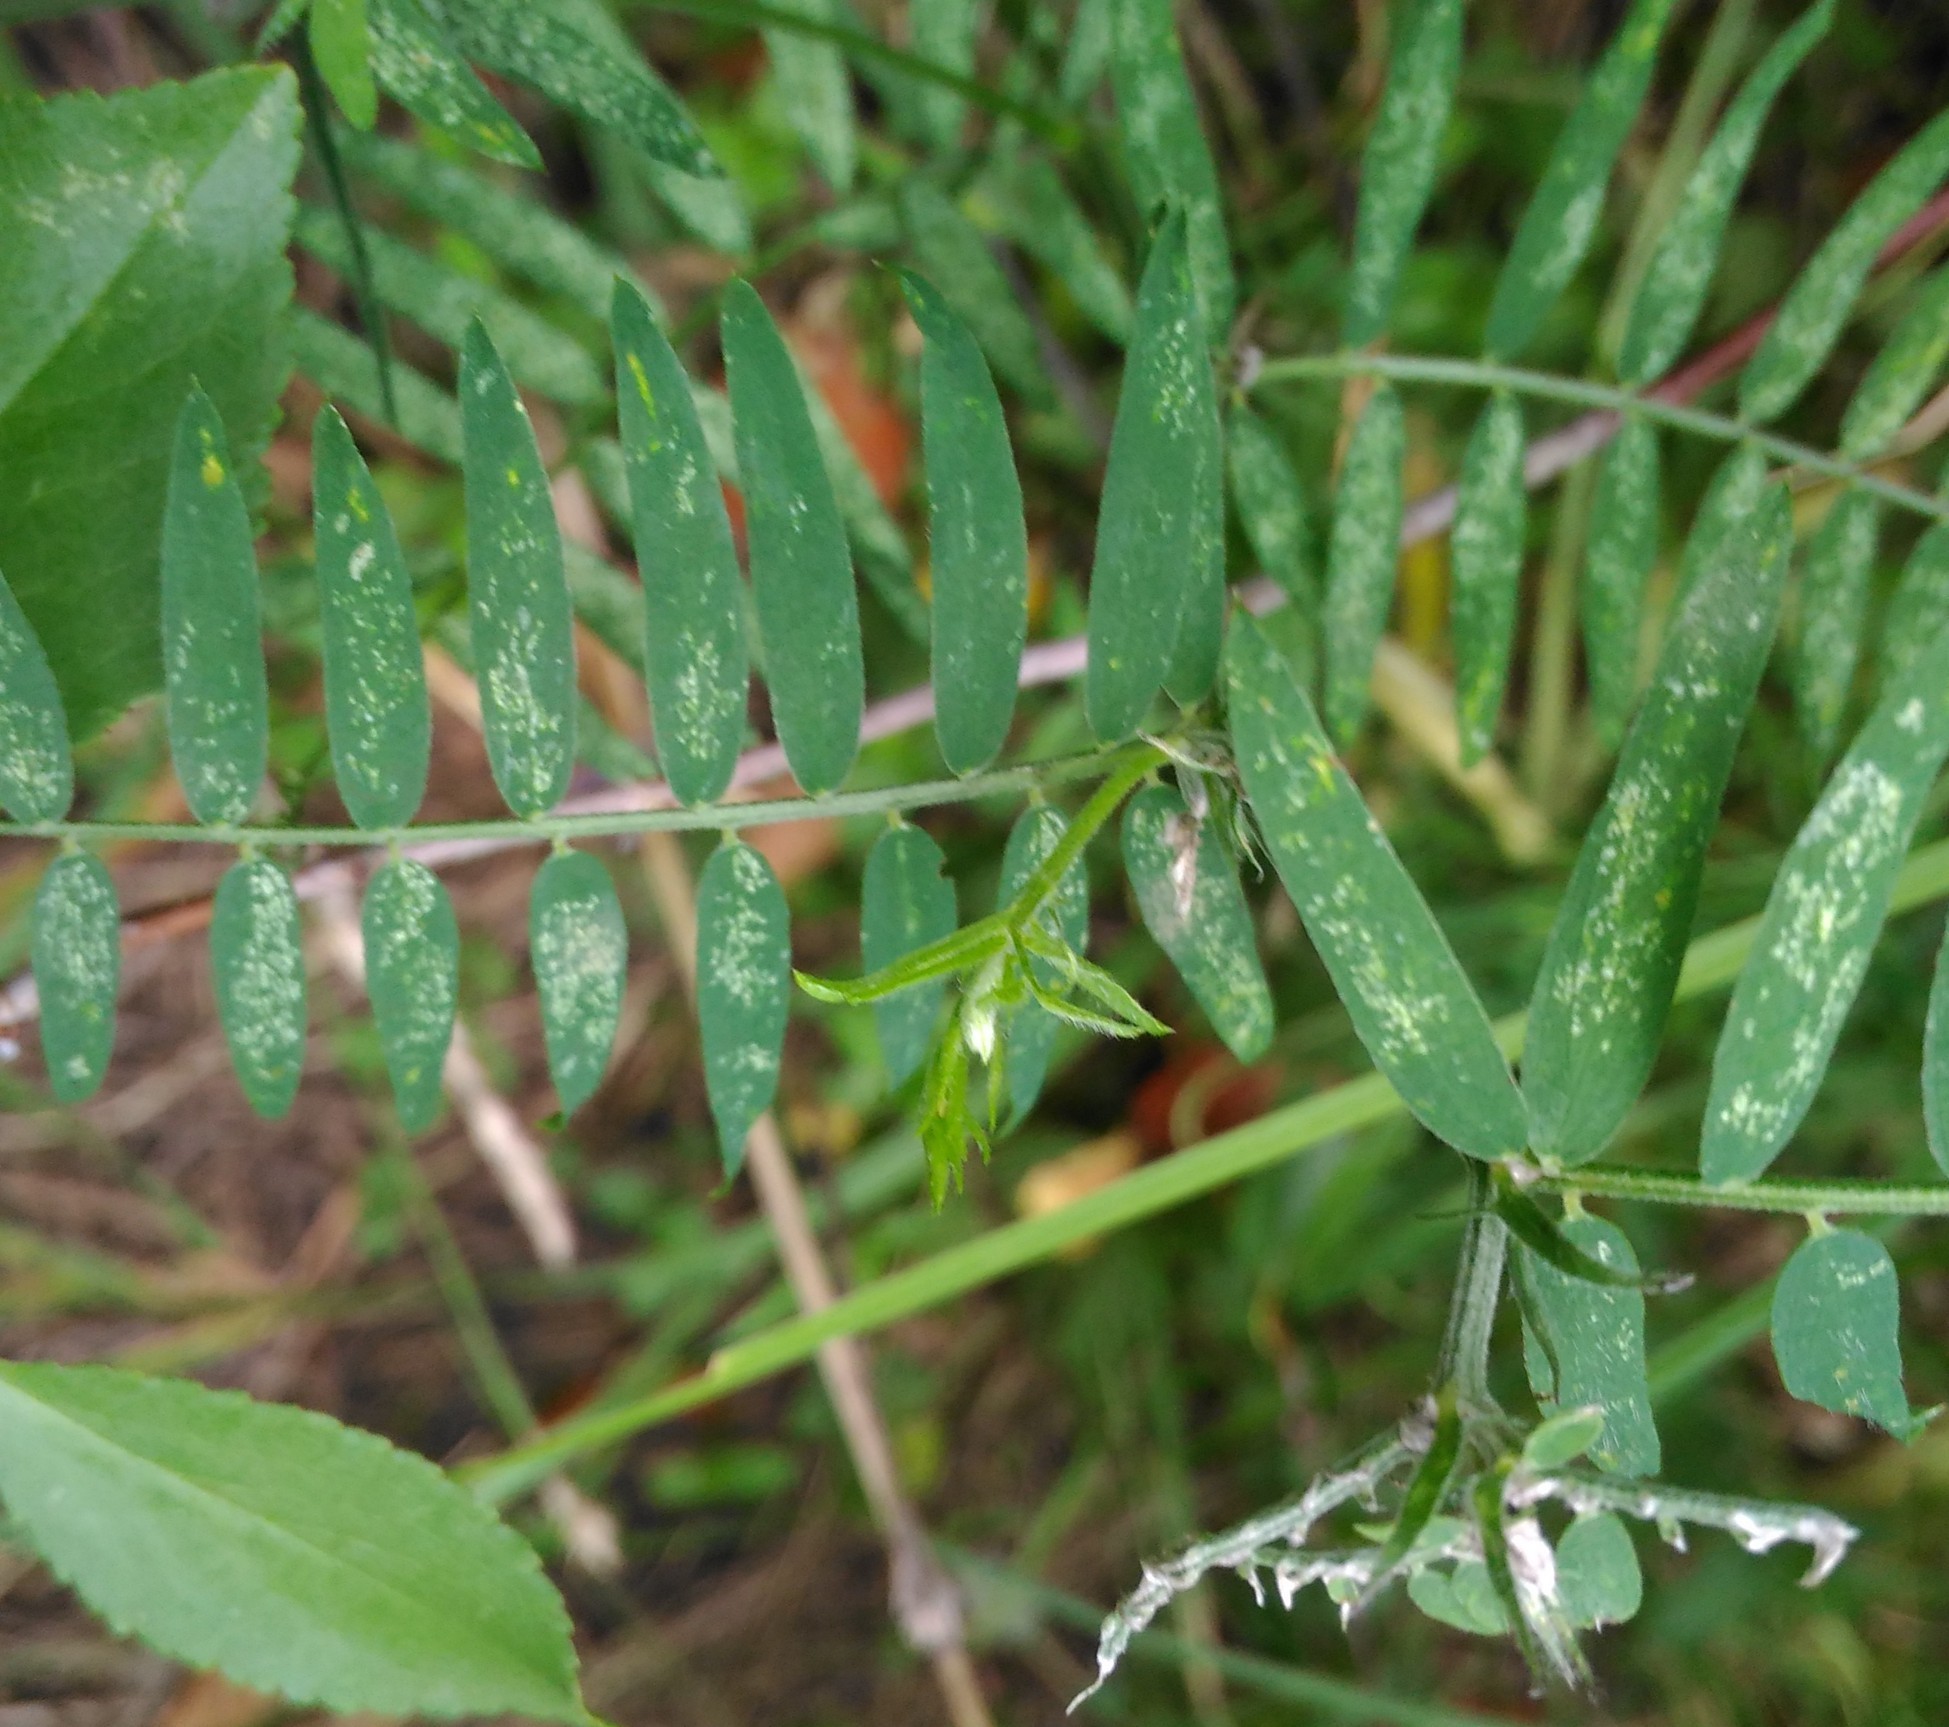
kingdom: Plantae
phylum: Tracheophyta
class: Magnoliopsida
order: Fabales
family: Fabaceae
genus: Vicia
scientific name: Vicia cracca
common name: Bird vetch
